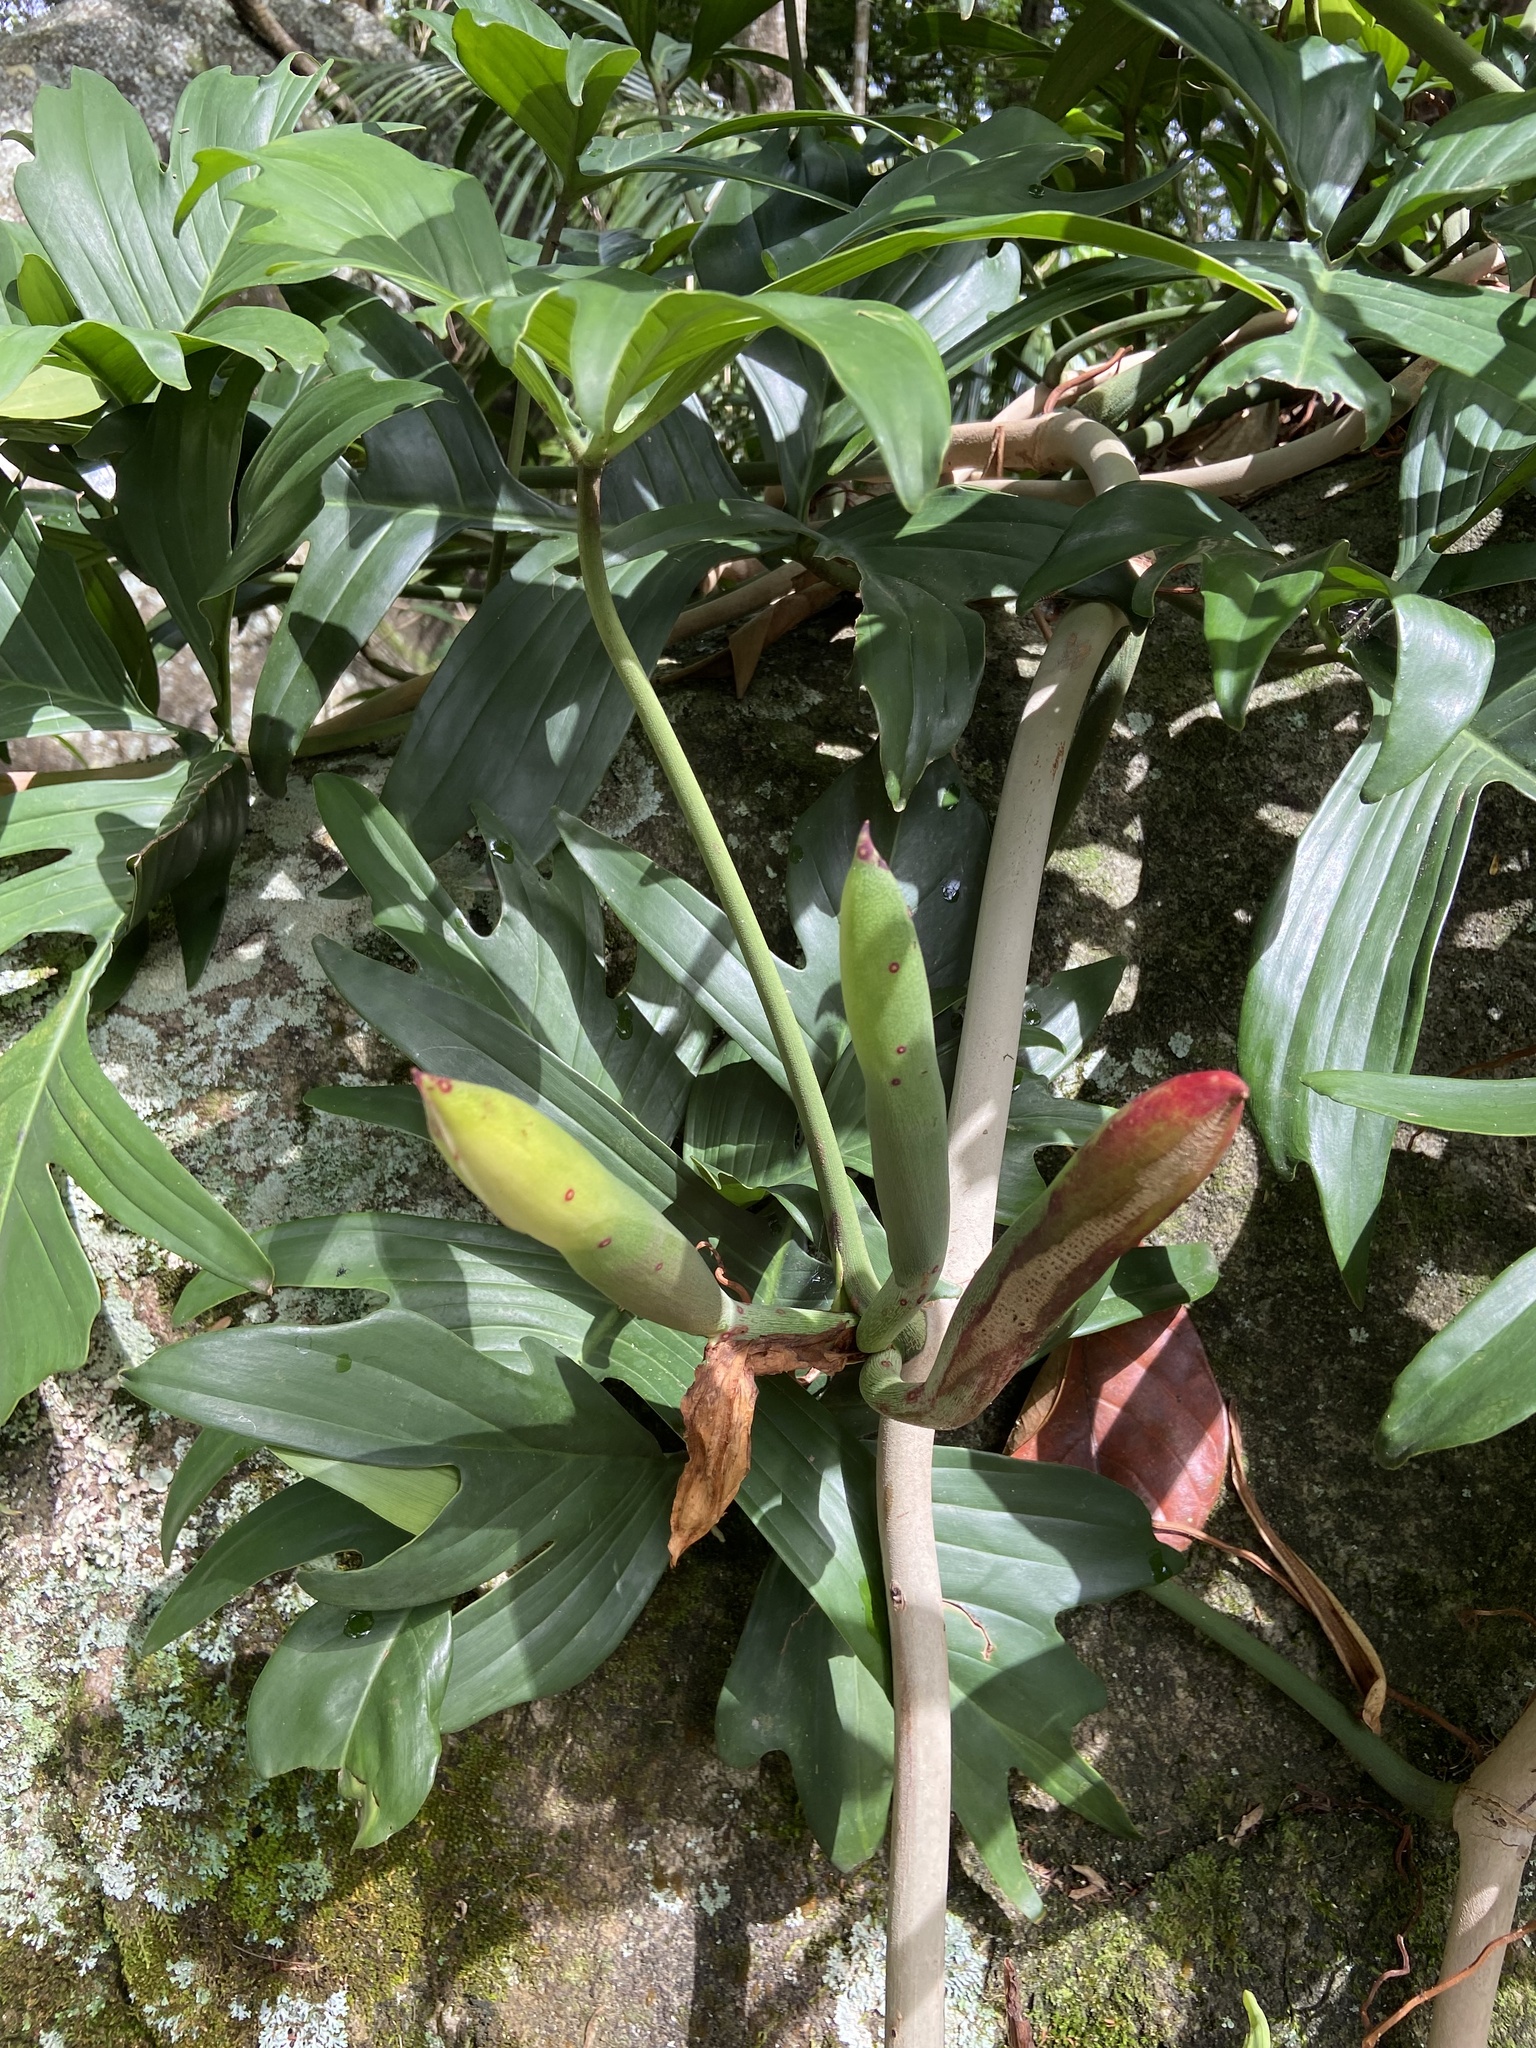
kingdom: Plantae
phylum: Tracheophyta
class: Liliopsida
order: Alismatales
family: Araceae
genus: Philodendron
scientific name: Philodendron pedatum
